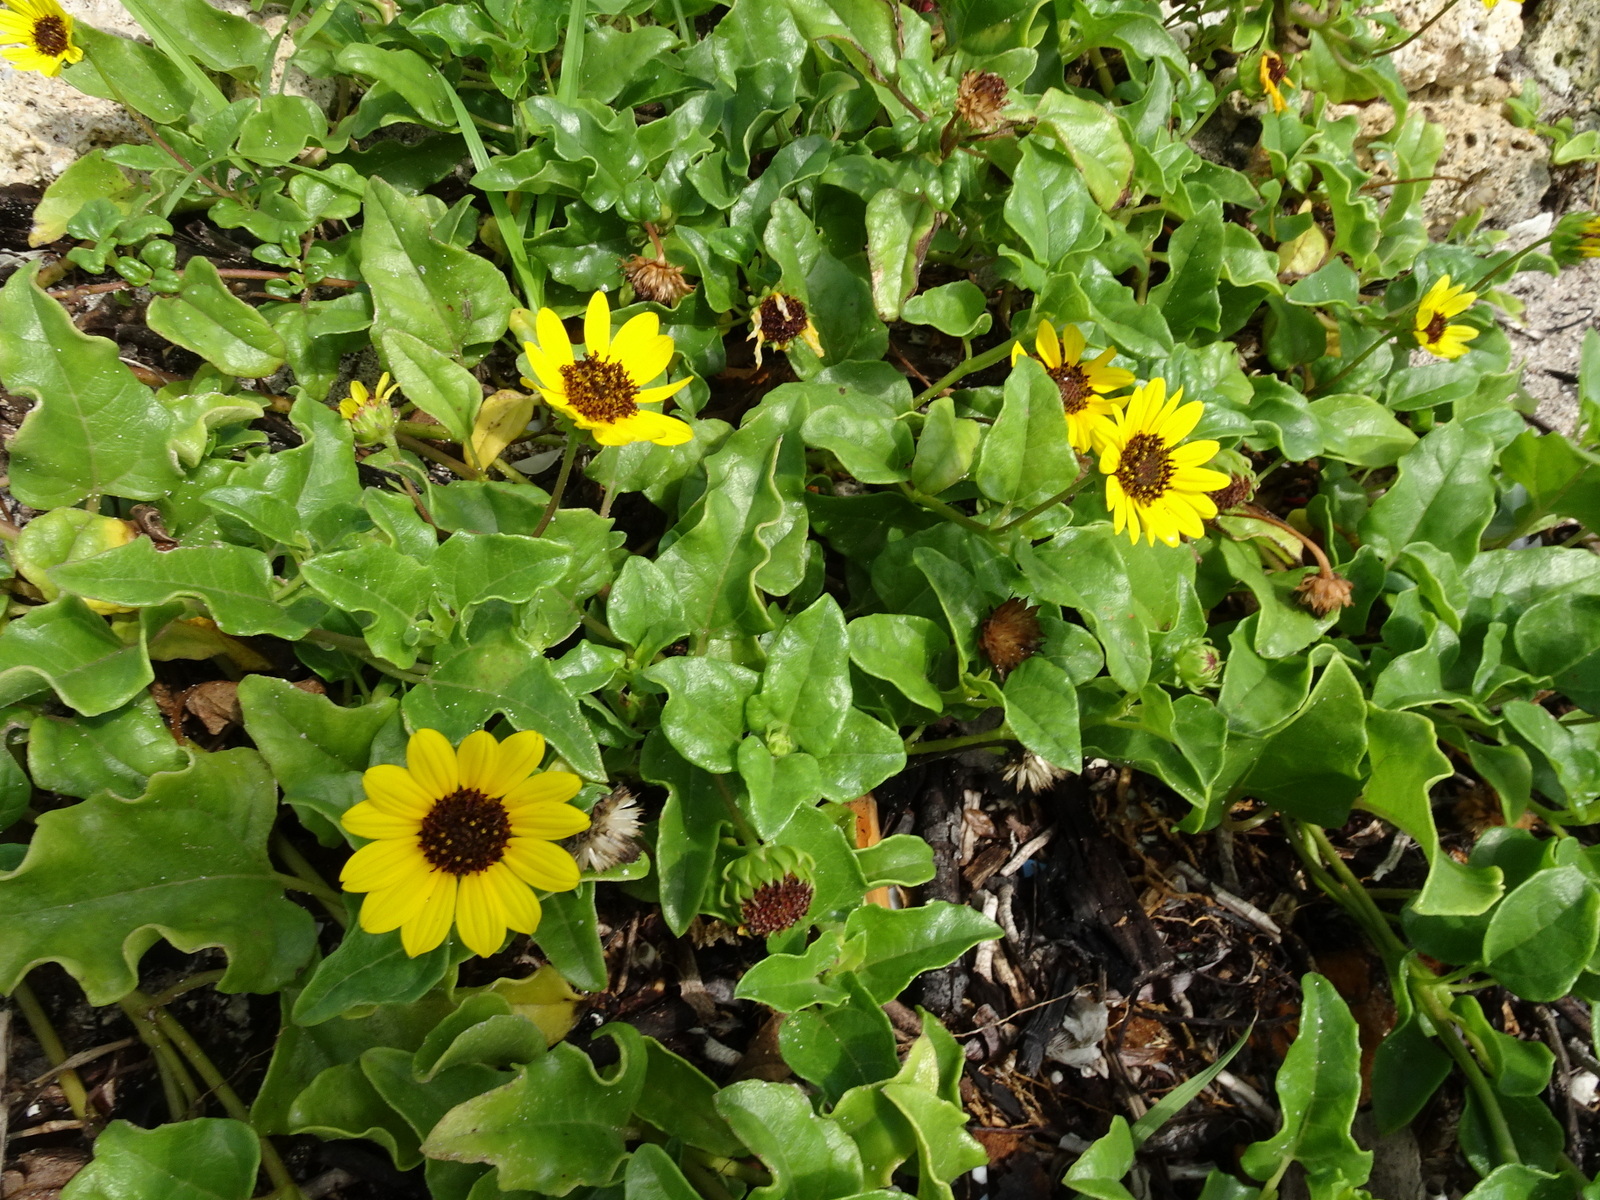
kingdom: Plantae
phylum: Tracheophyta
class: Magnoliopsida
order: Asterales
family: Asteraceae
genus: Helianthus
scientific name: Helianthus debilis
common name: Weak sunflower
